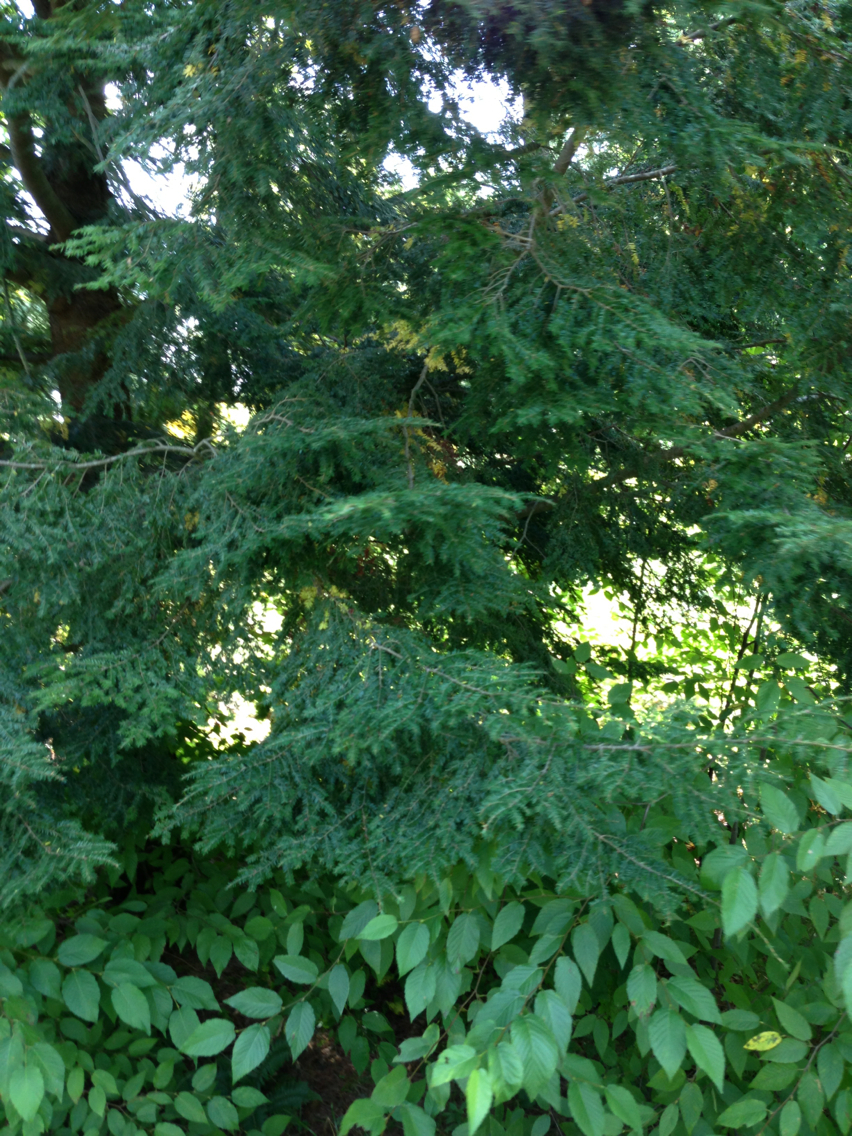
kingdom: Plantae
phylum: Tracheophyta
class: Pinopsida
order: Pinales
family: Pinaceae
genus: Tsuga
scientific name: Tsuga canadensis
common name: Eastern hemlock
